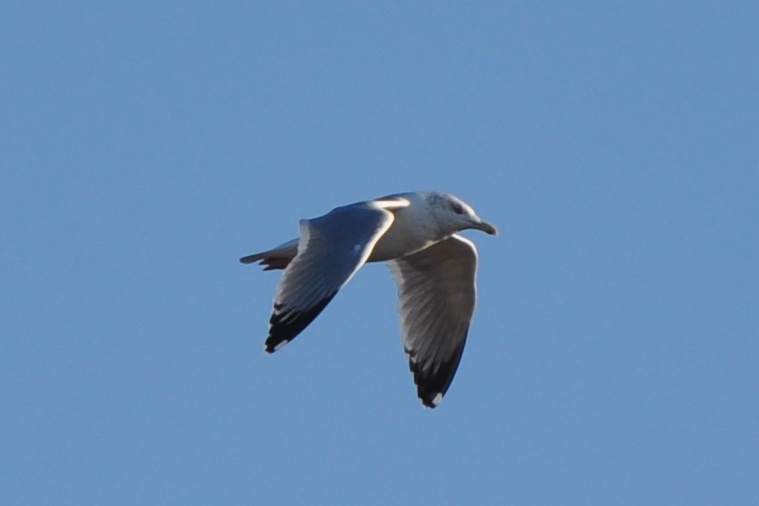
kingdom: Animalia
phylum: Chordata
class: Aves
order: Charadriiformes
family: Laridae
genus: Larus
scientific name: Larus argentatus
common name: Herring gull
